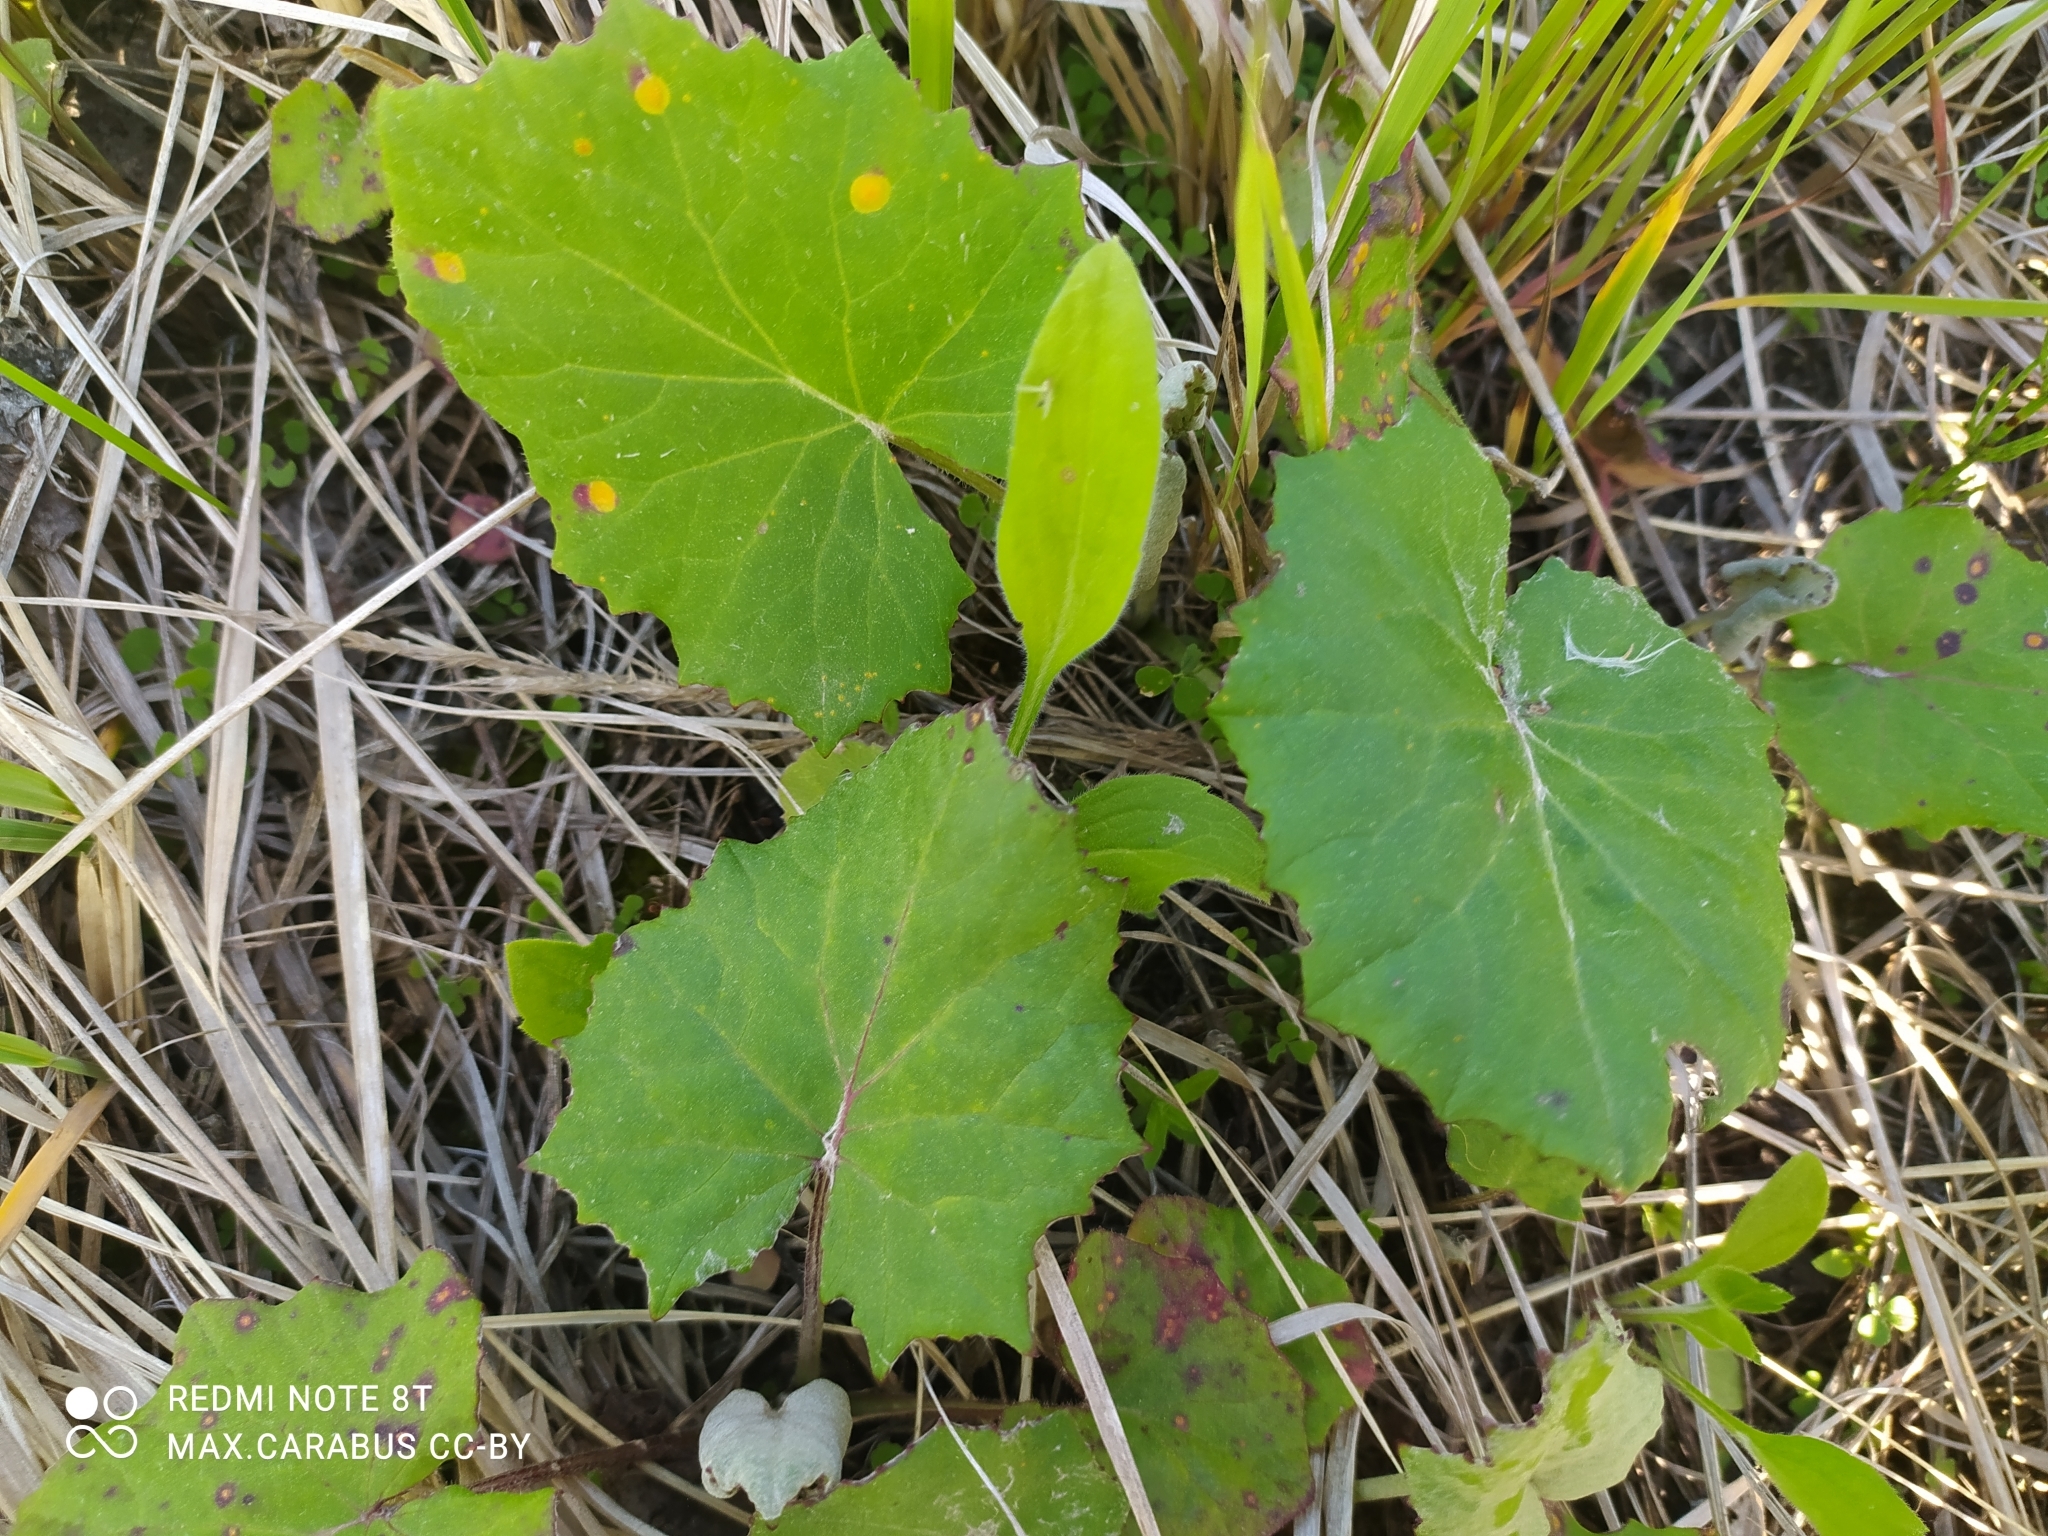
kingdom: Plantae
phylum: Tracheophyta
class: Magnoliopsida
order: Asterales
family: Asteraceae
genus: Tussilago
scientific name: Tussilago farfara
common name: Coltsfoot
